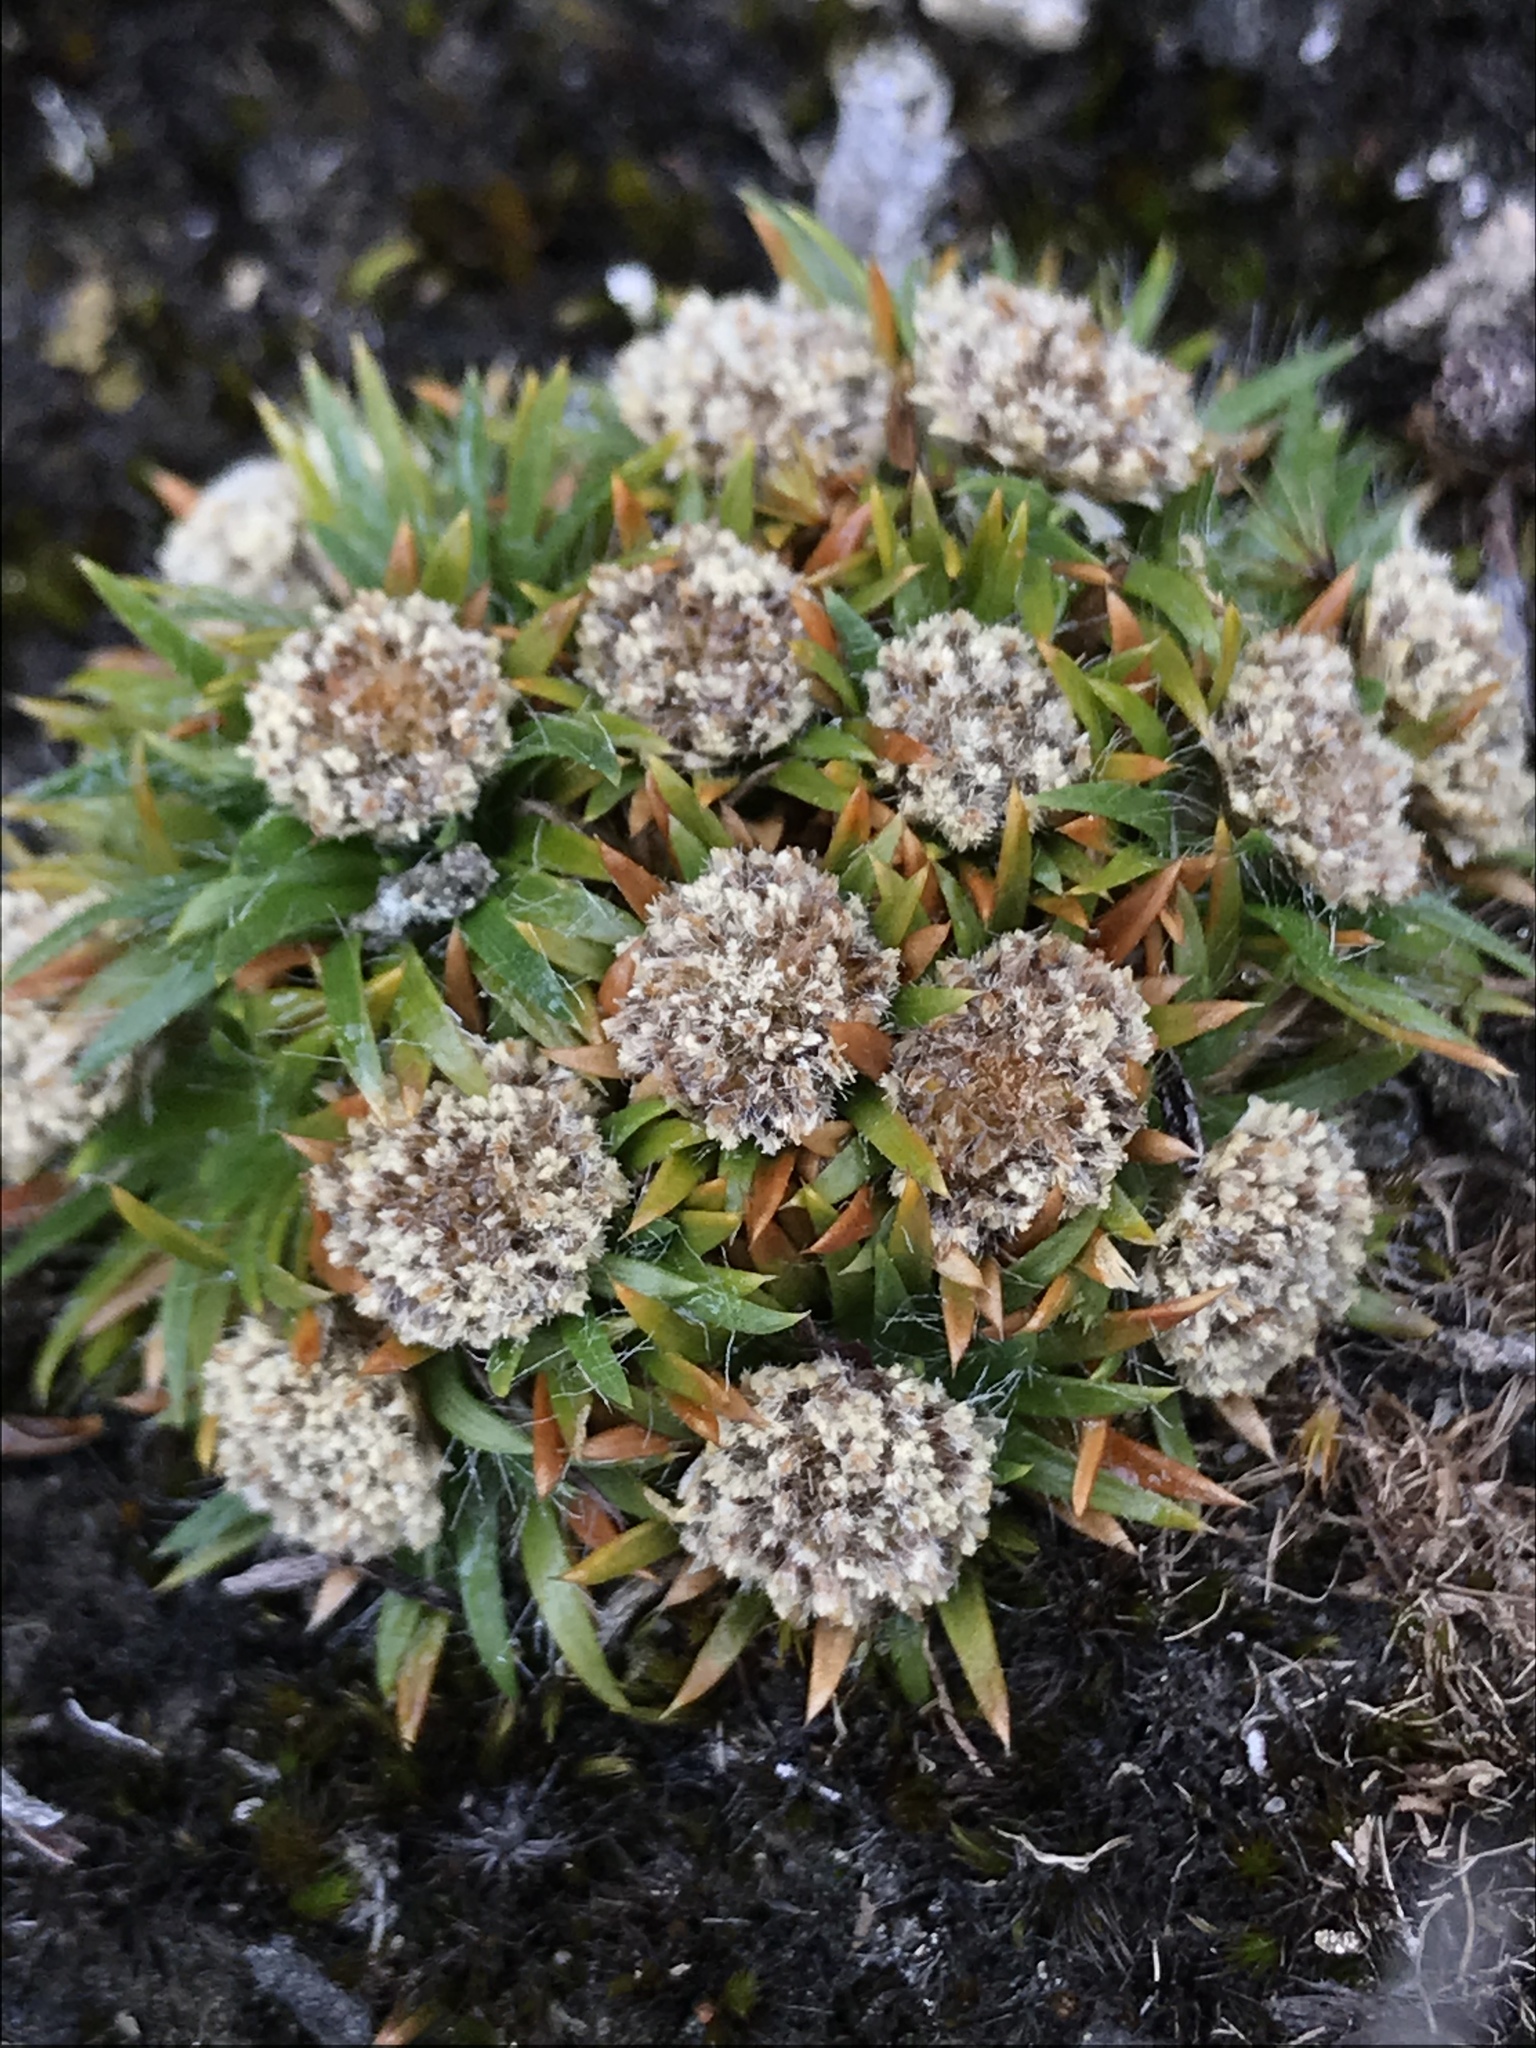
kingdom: Plantae
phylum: Tracheophyta
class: Liliopsida
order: Poales
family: Eriocaulaceae
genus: Paepalanthus
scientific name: Paepalanthus lodiculoides
